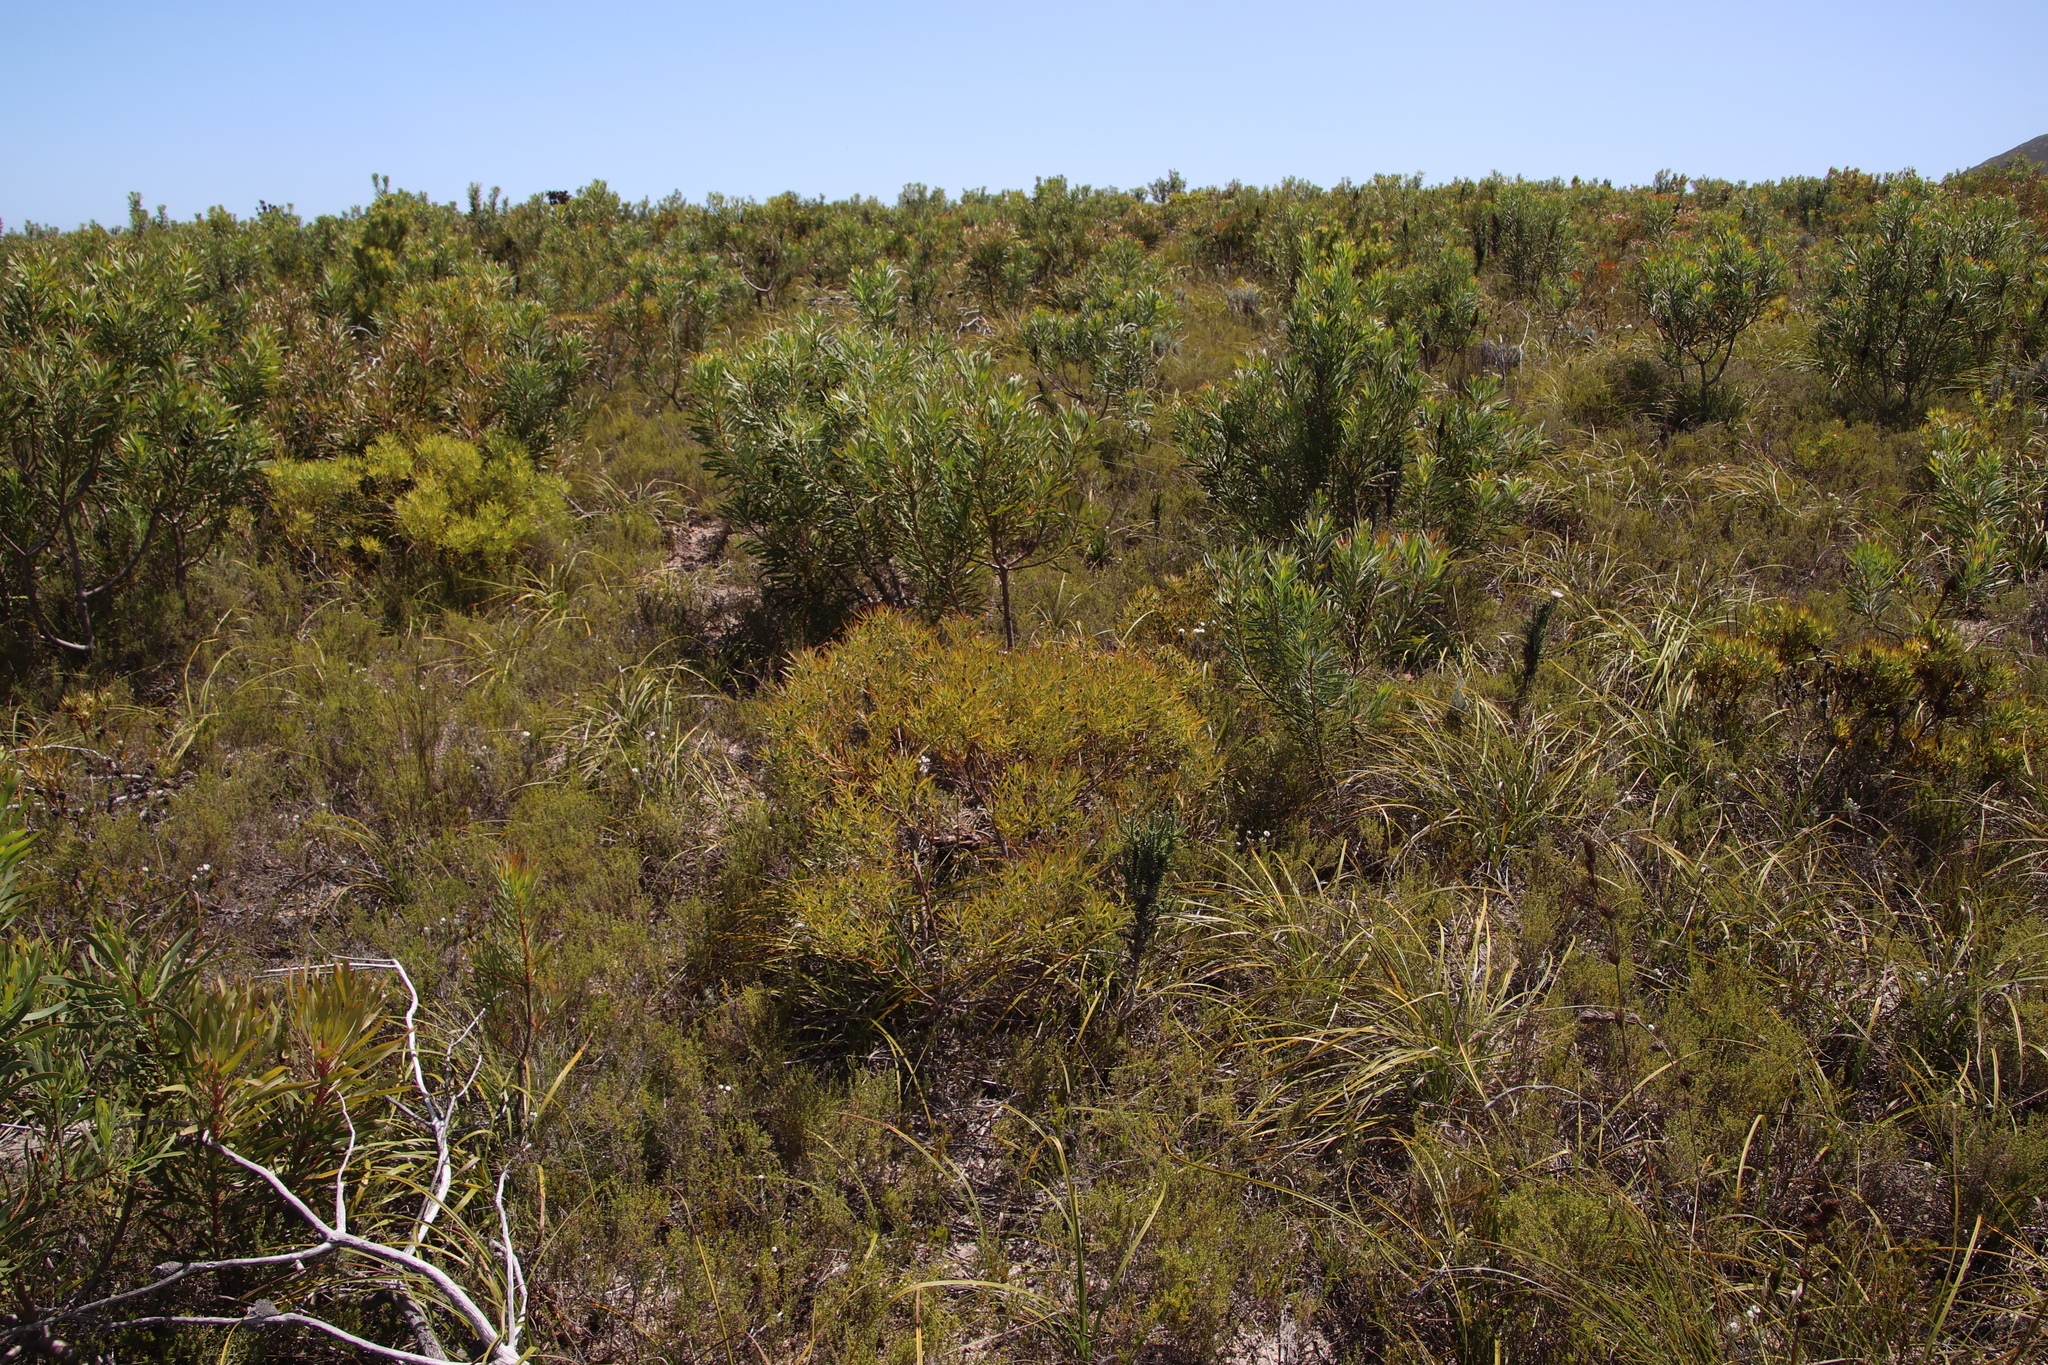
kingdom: Plantae
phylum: Tracheophyta
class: Magnoliopsida
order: Proteales
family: Proteaceae
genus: Leucadendron
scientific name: Leucadendron salignum
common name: Common sunshine conebush
